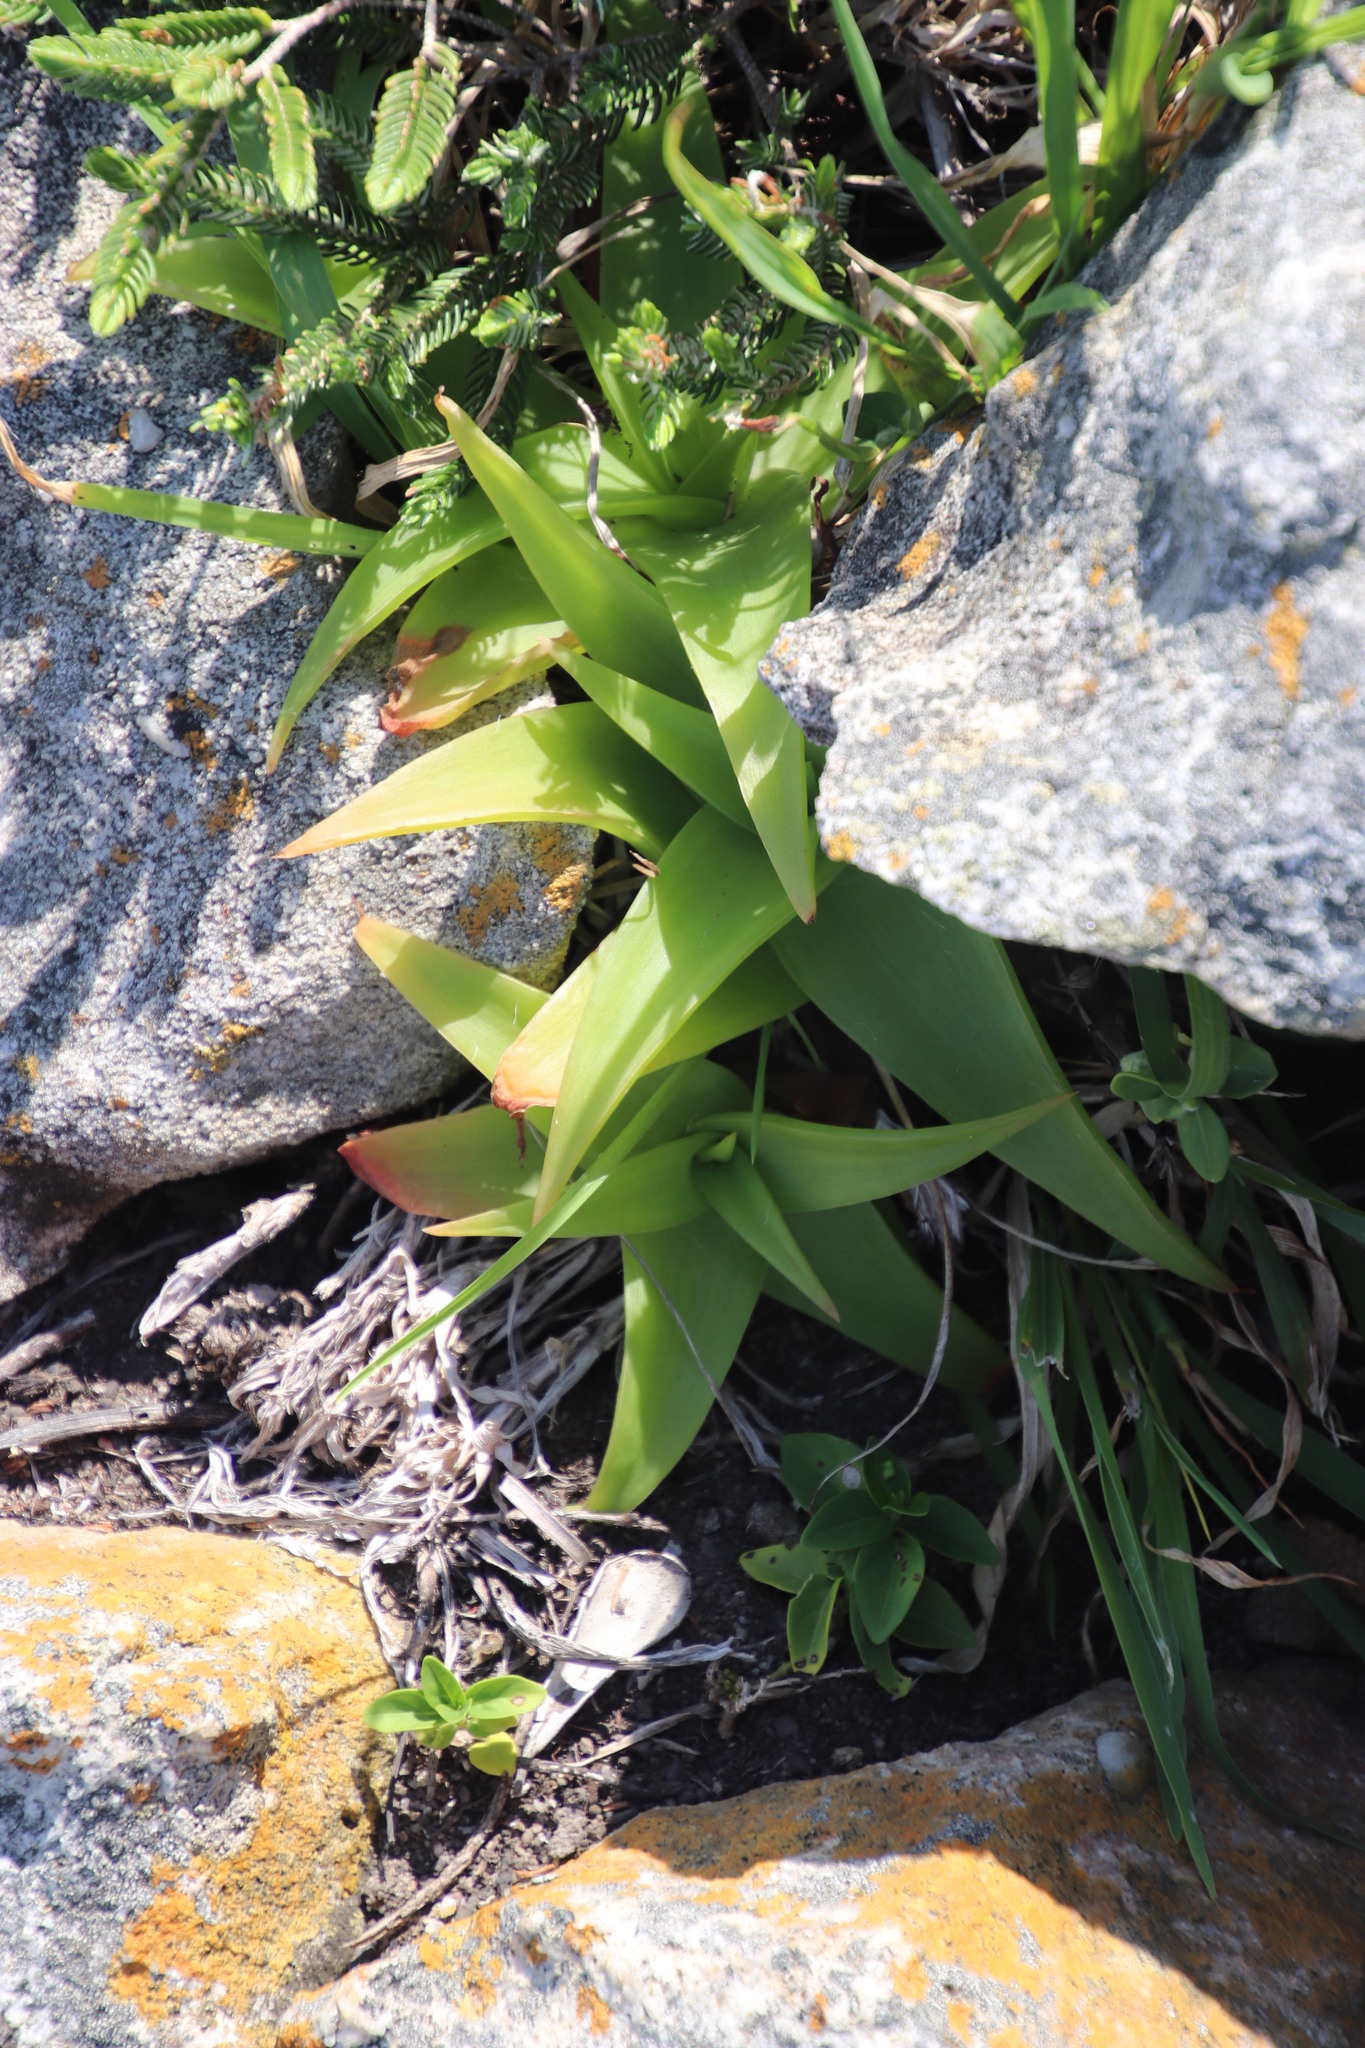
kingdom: Plantae
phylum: Tracheophyta
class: Liliopsida
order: Asparagales
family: Asphodelaceae
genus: Bulbine
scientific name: Bulbine latifolia
